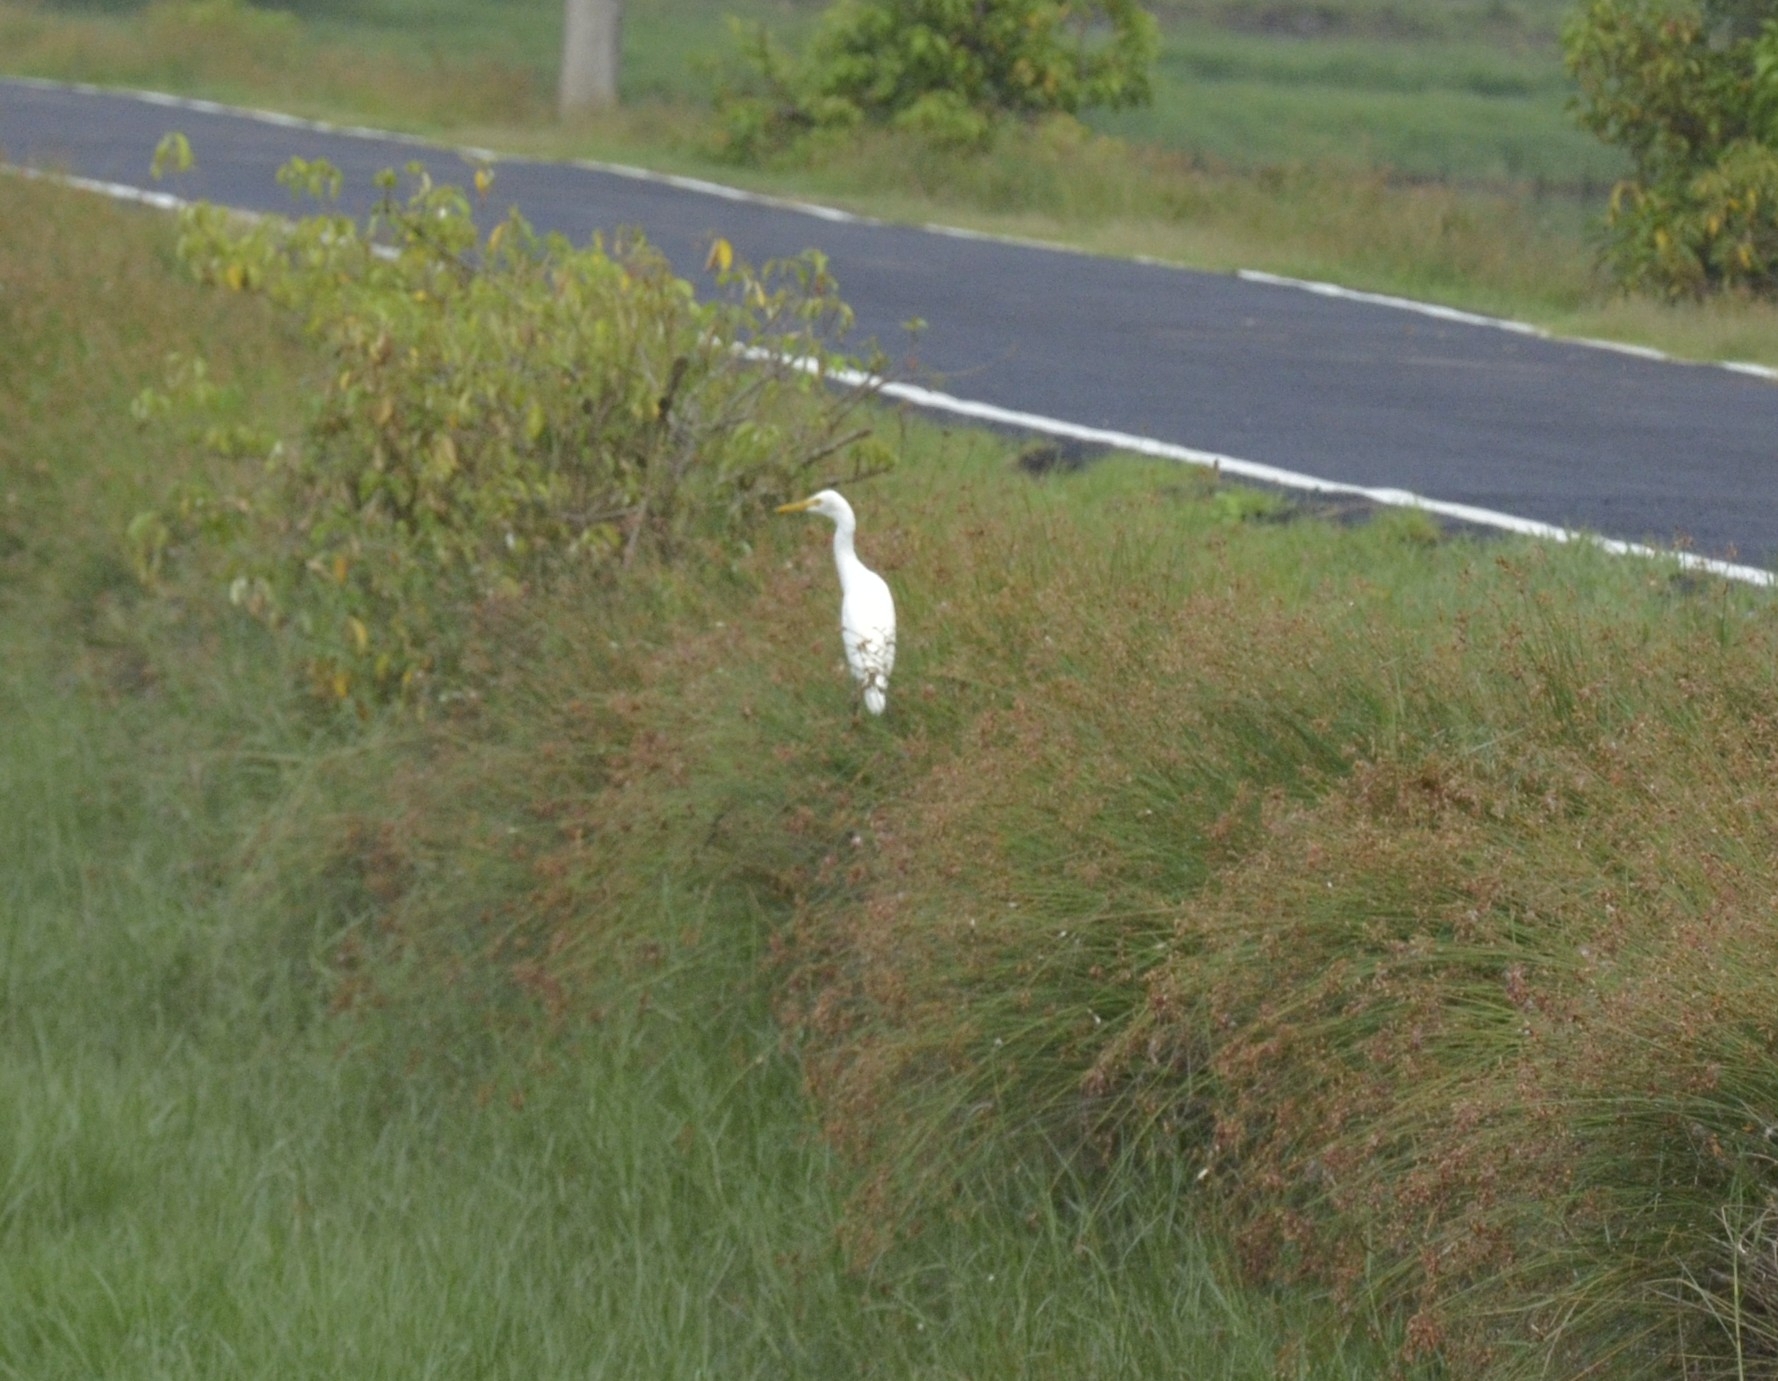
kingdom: Animalia
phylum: Chordata
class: Aves
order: Pelecaniformes
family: Ardeidae
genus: Bubulcus
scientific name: Bubulcus coromandus
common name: Eastern cattle egret
